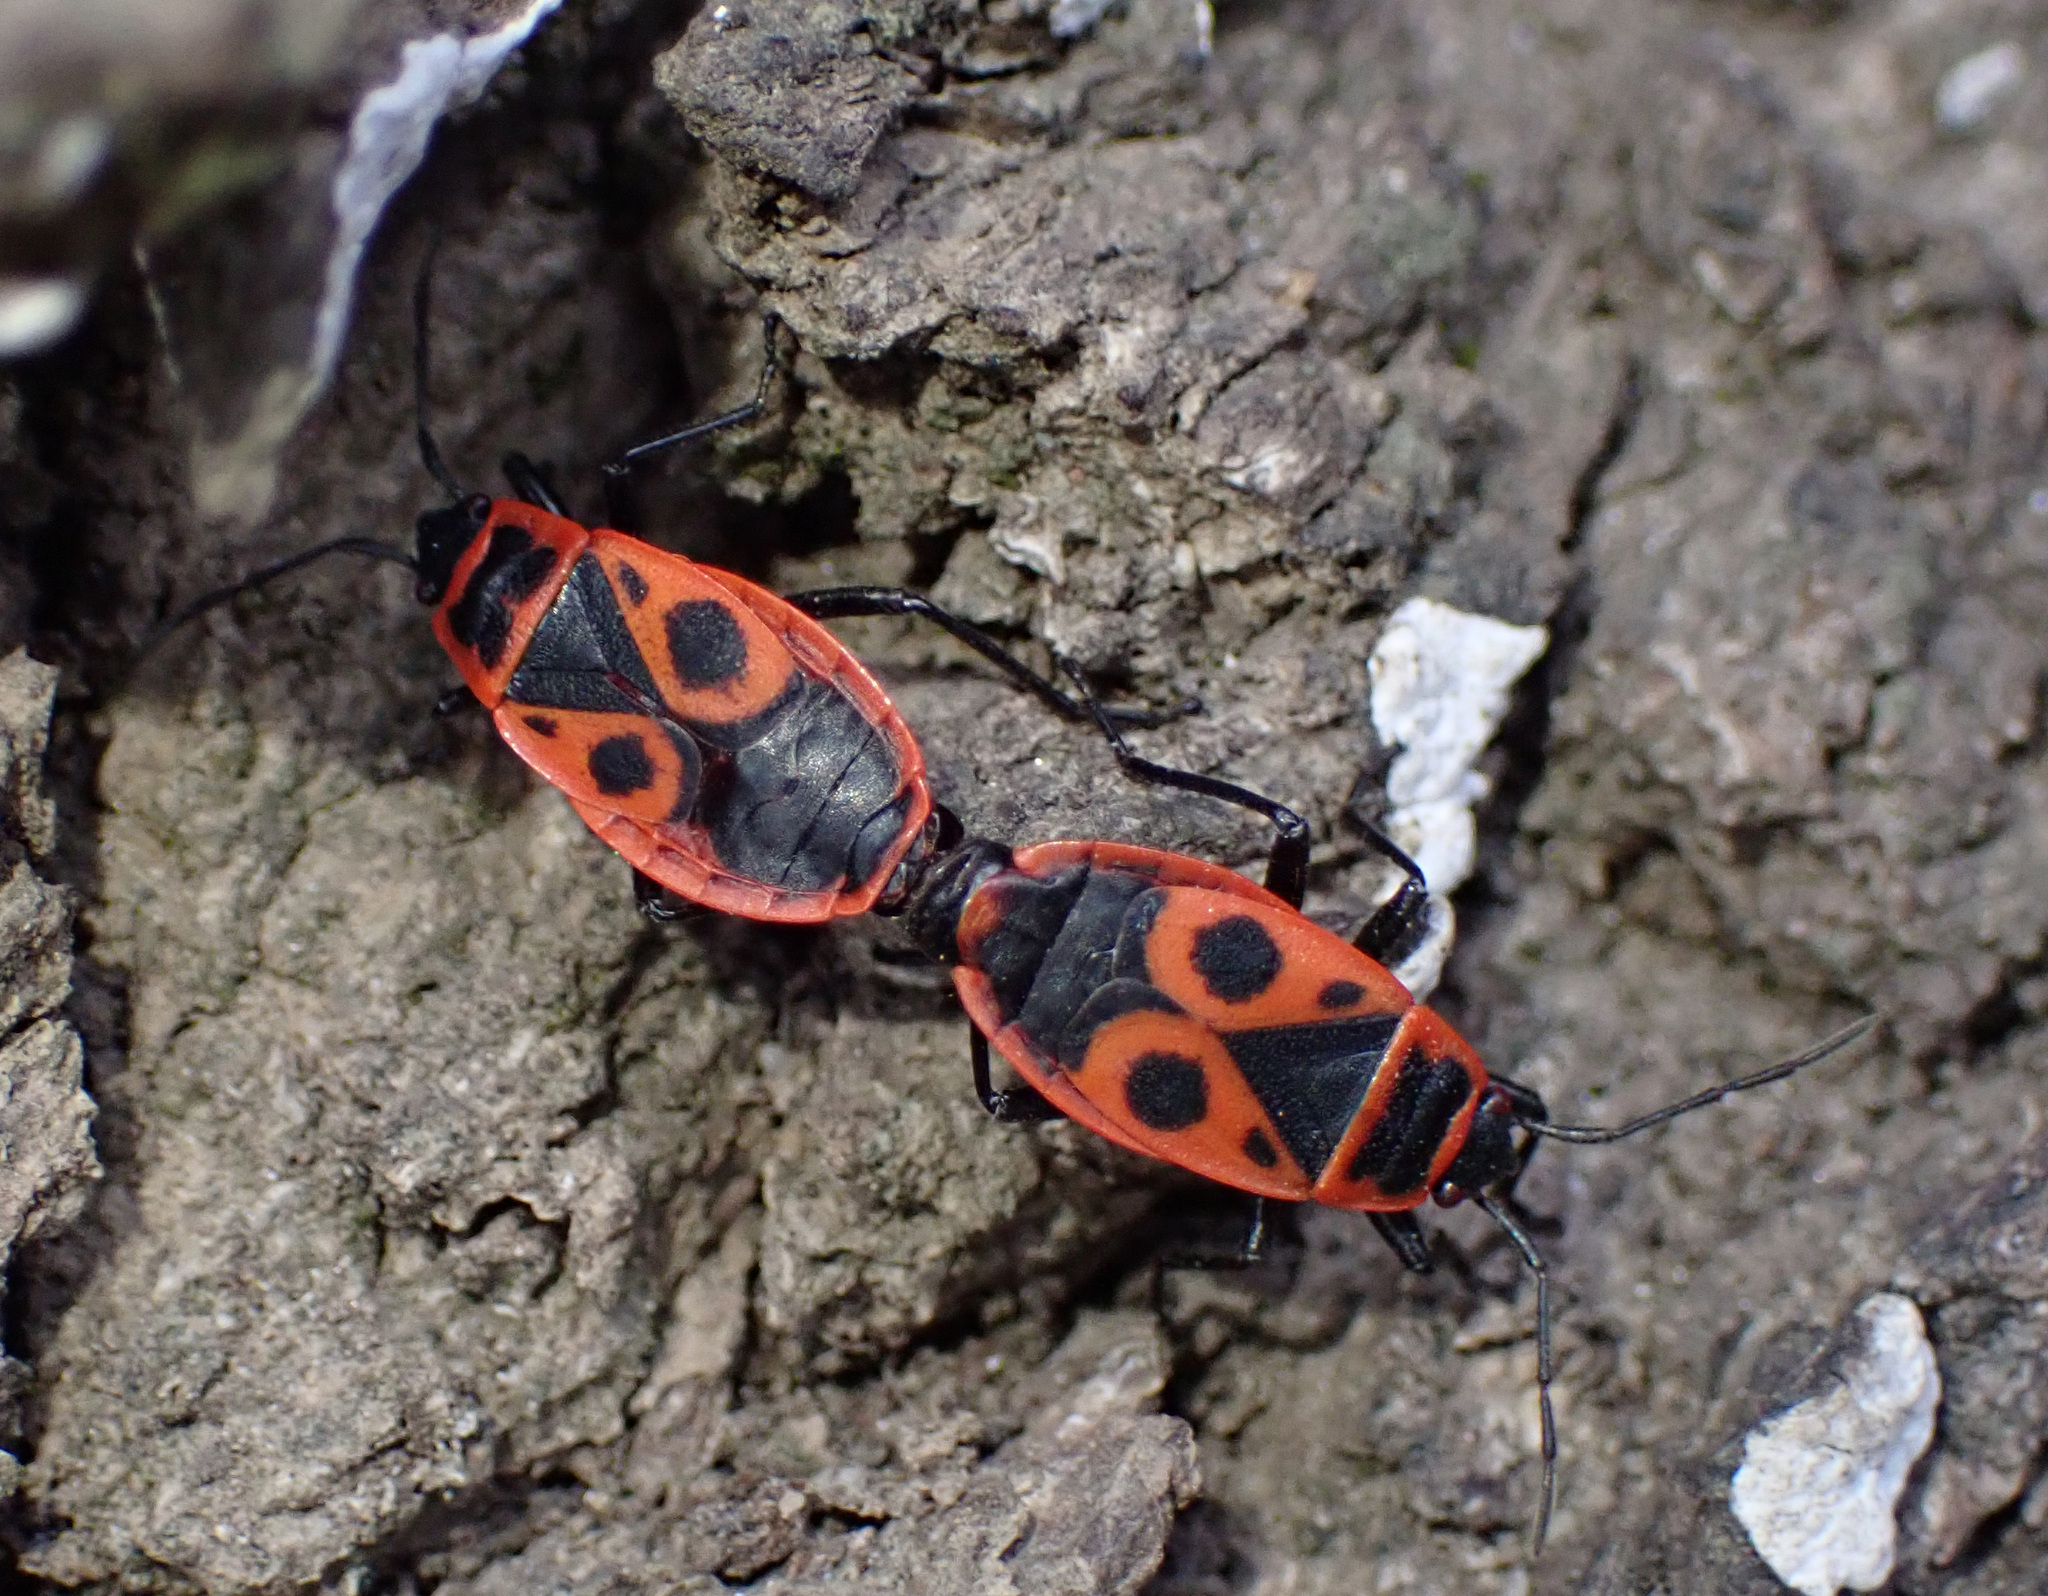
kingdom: Animalia
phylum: Arthropoda
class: Insecta
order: Hemiptera
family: Pyrrhocoridae
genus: Pyrrhocoris
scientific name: Pyrrhocoris apterus
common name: Firebug
